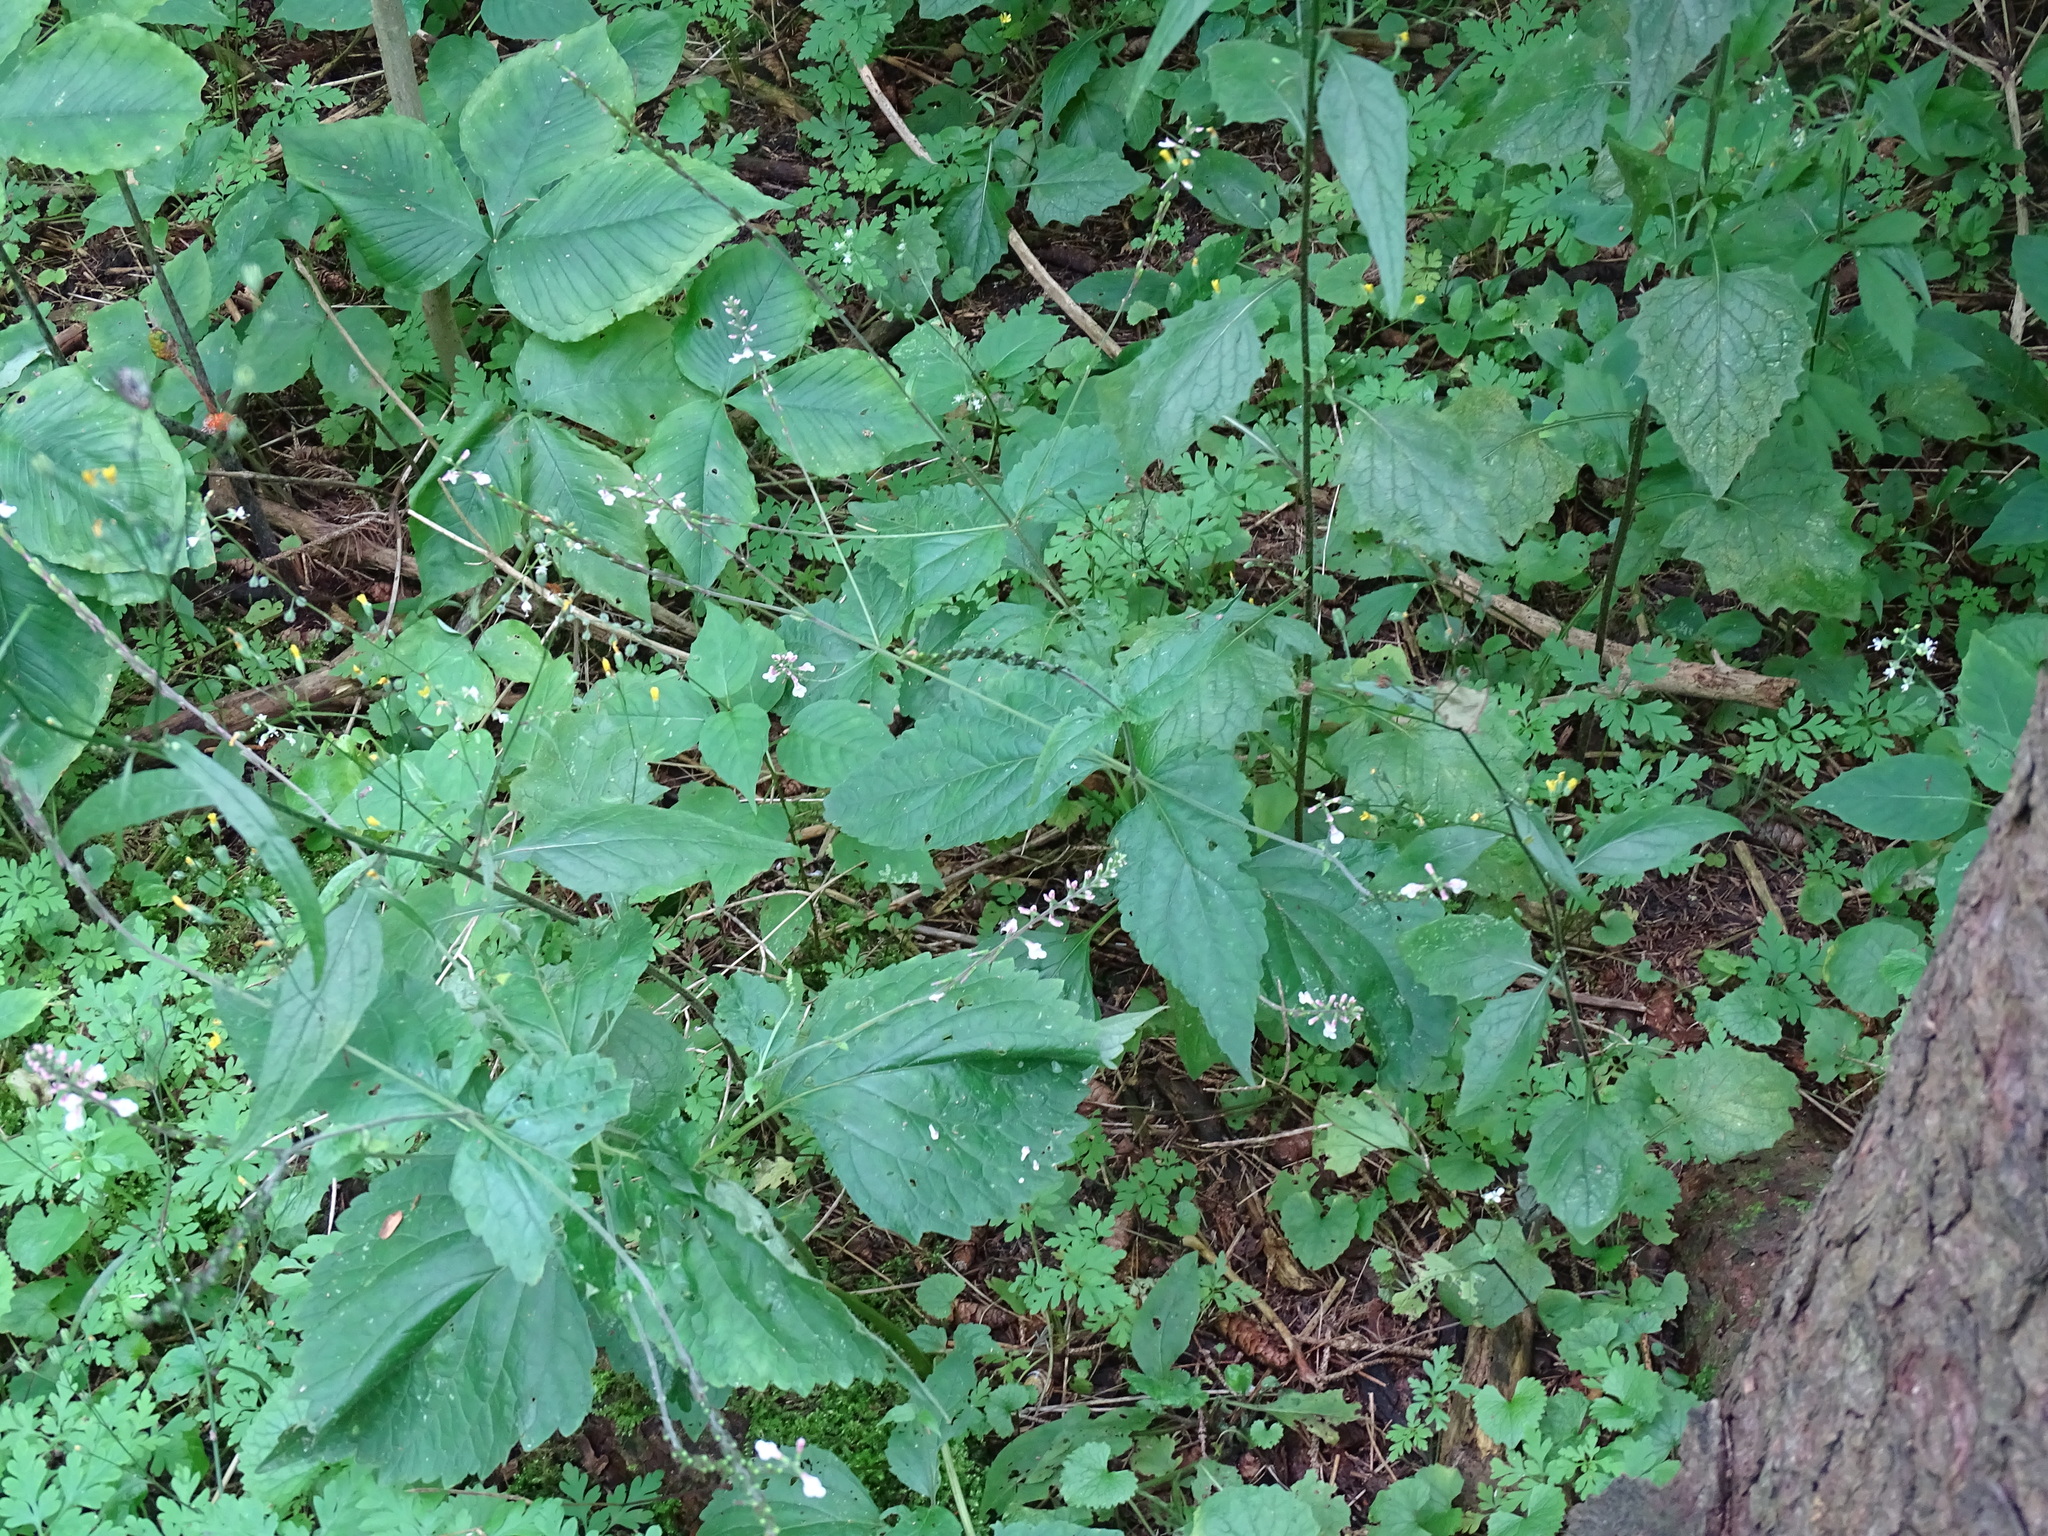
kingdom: Plantae
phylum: Tracheophyta
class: Magnoliopsida
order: Lamiales
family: Phrymaceae
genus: Phryma
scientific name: Phryma leptostachya
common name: American lopseed
